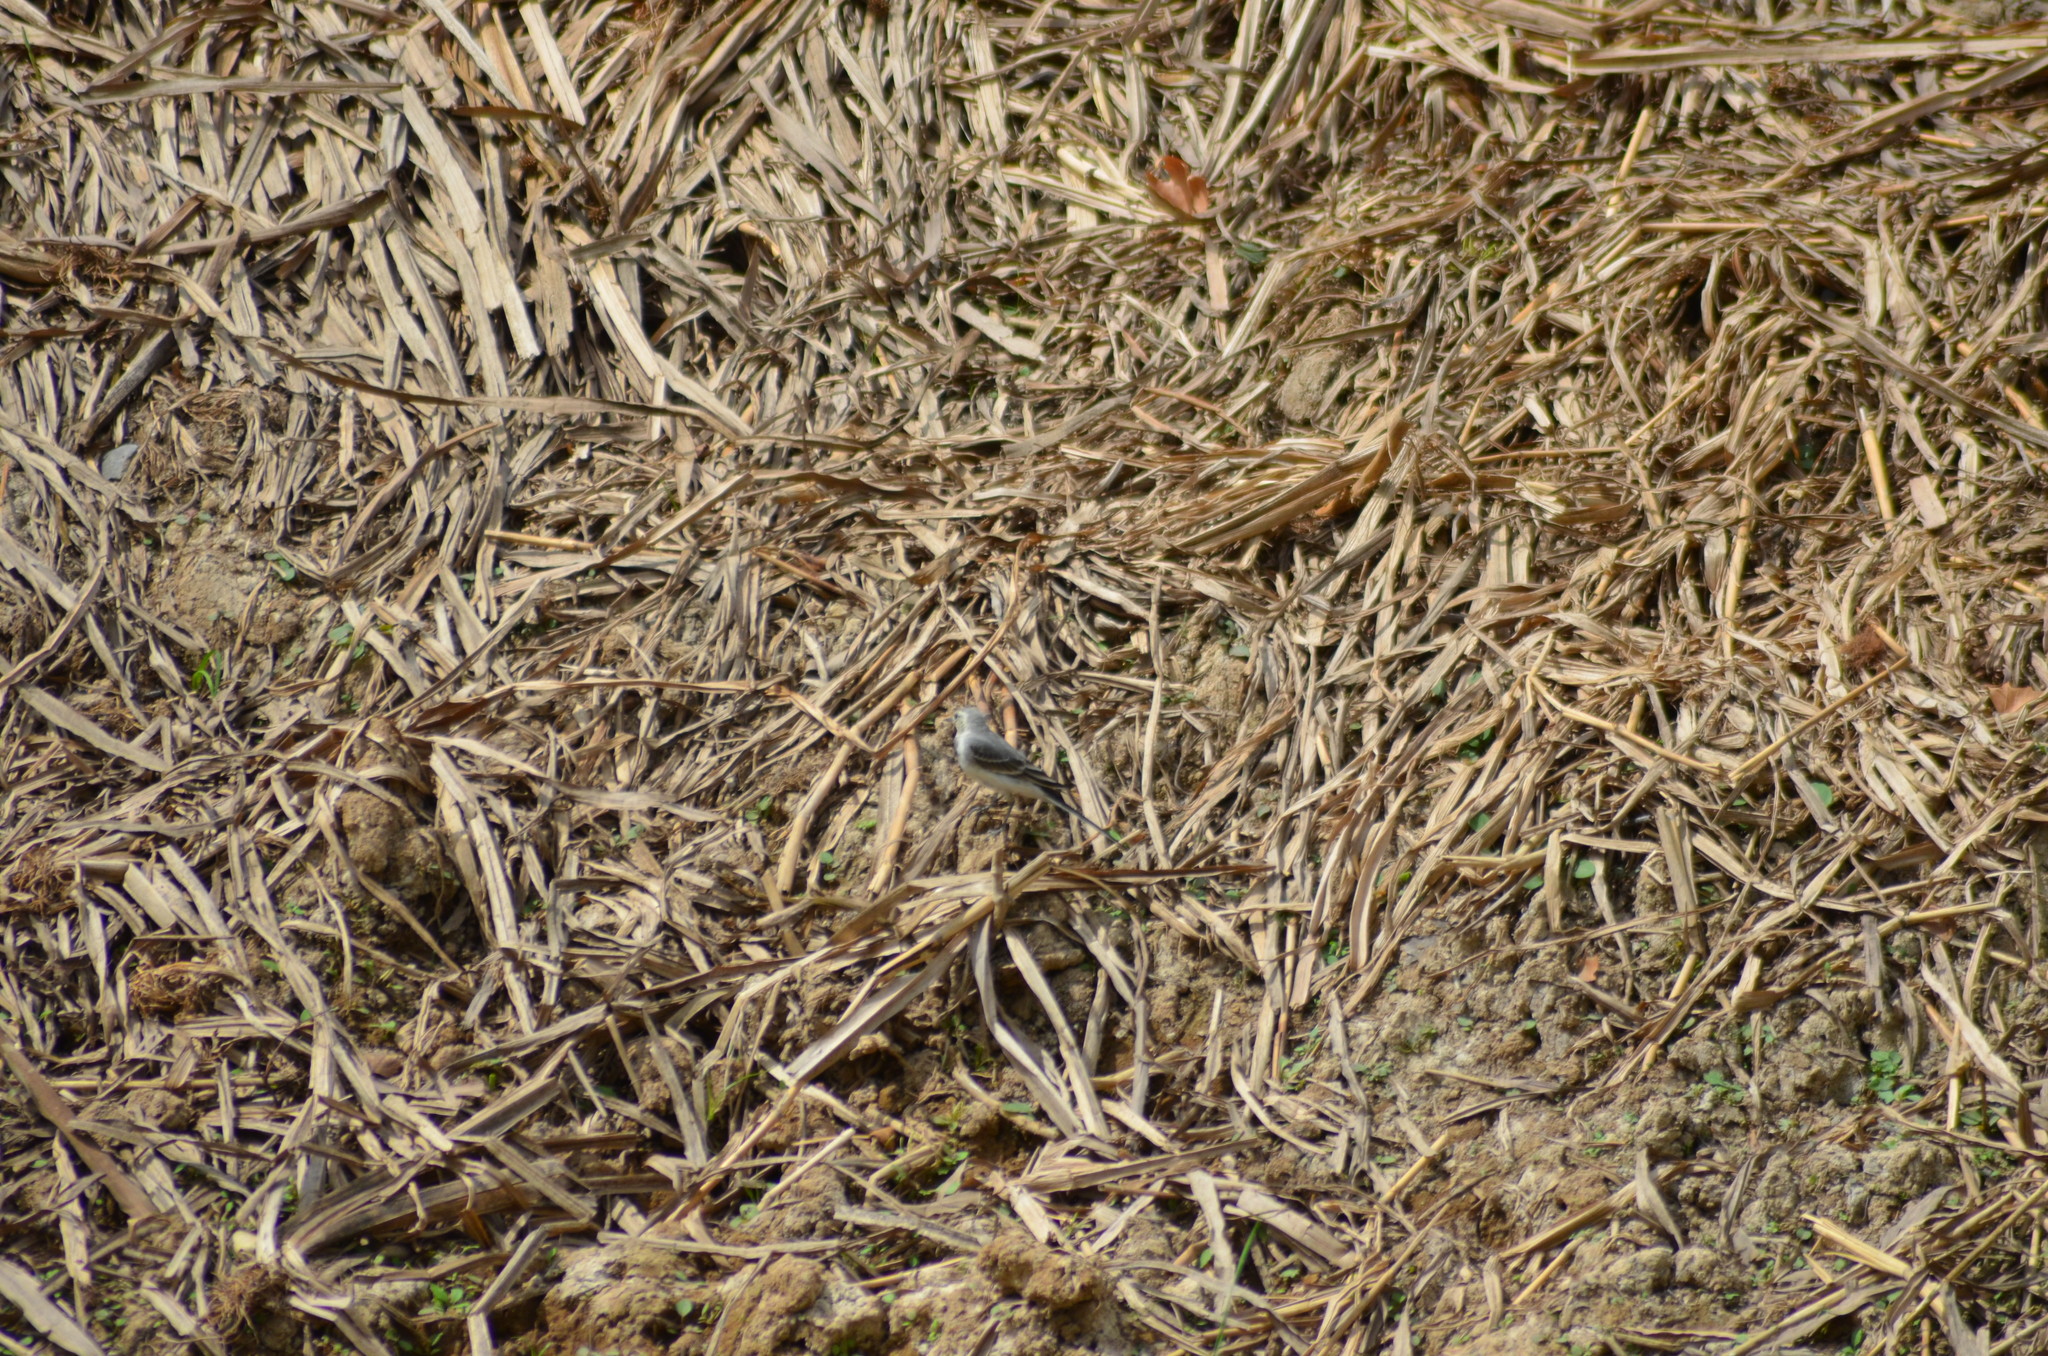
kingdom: Animalia
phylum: Chordata
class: Aves
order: Passeriformes
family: Motacillidae
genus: Motacilla
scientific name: Motacilla alba
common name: White wagtail
